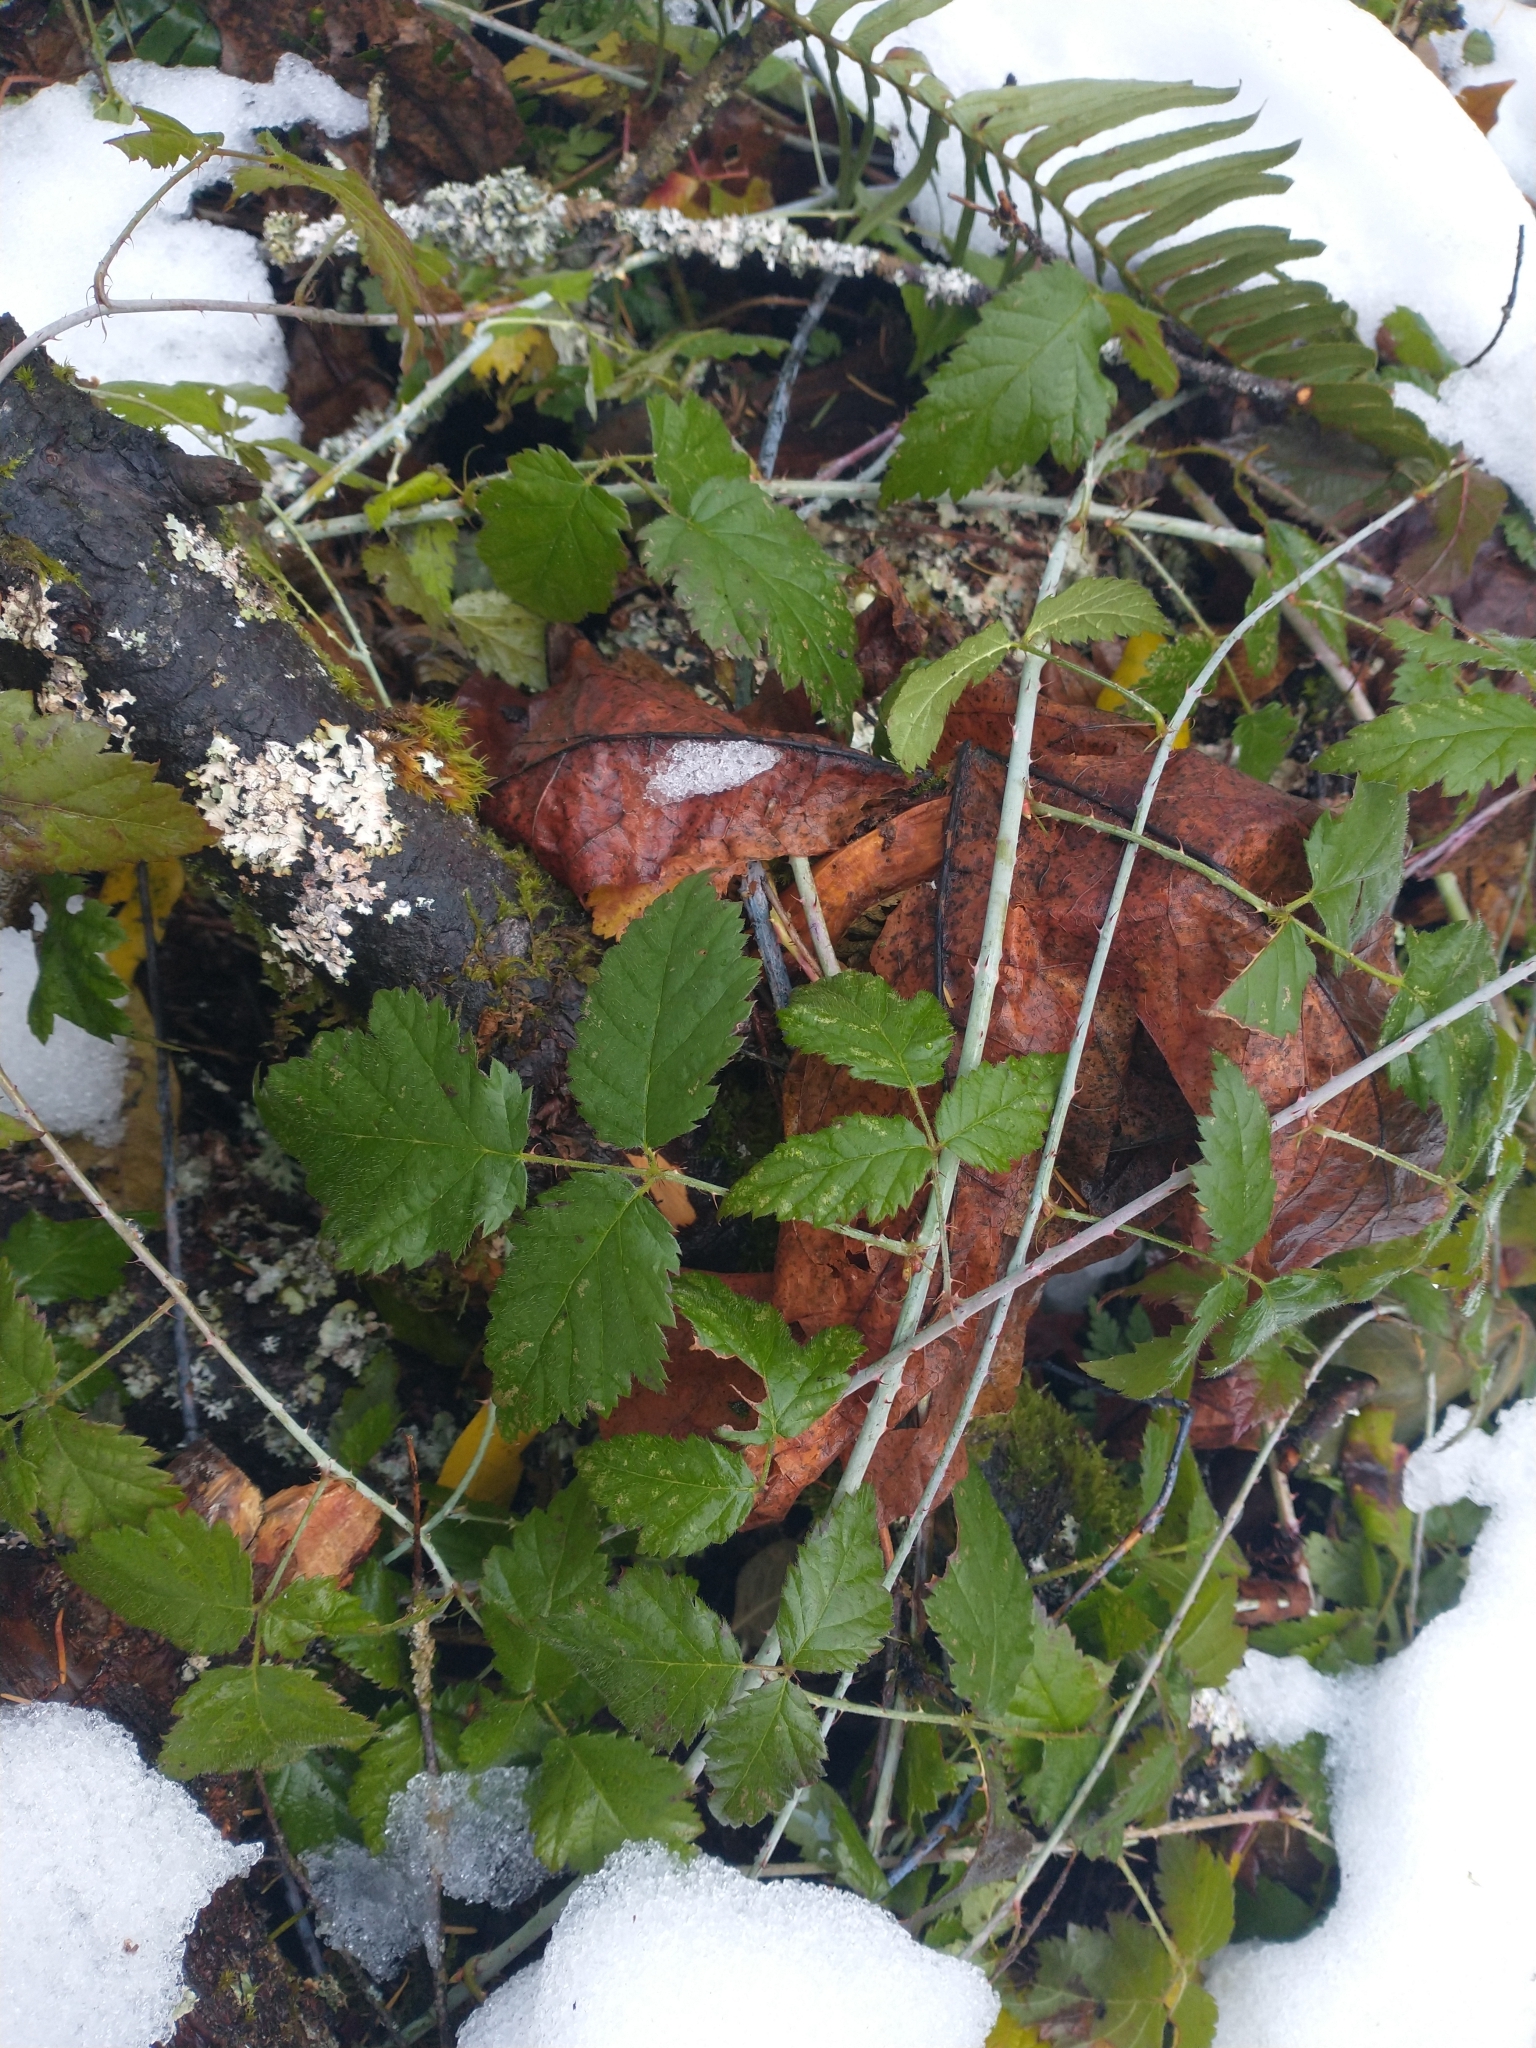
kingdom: Plantae
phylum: Tracheophyta
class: Magnoliopsida
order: Rosales
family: Rosaceae
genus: Rubus
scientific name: Rubus ursinus
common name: Pacific blackberry
